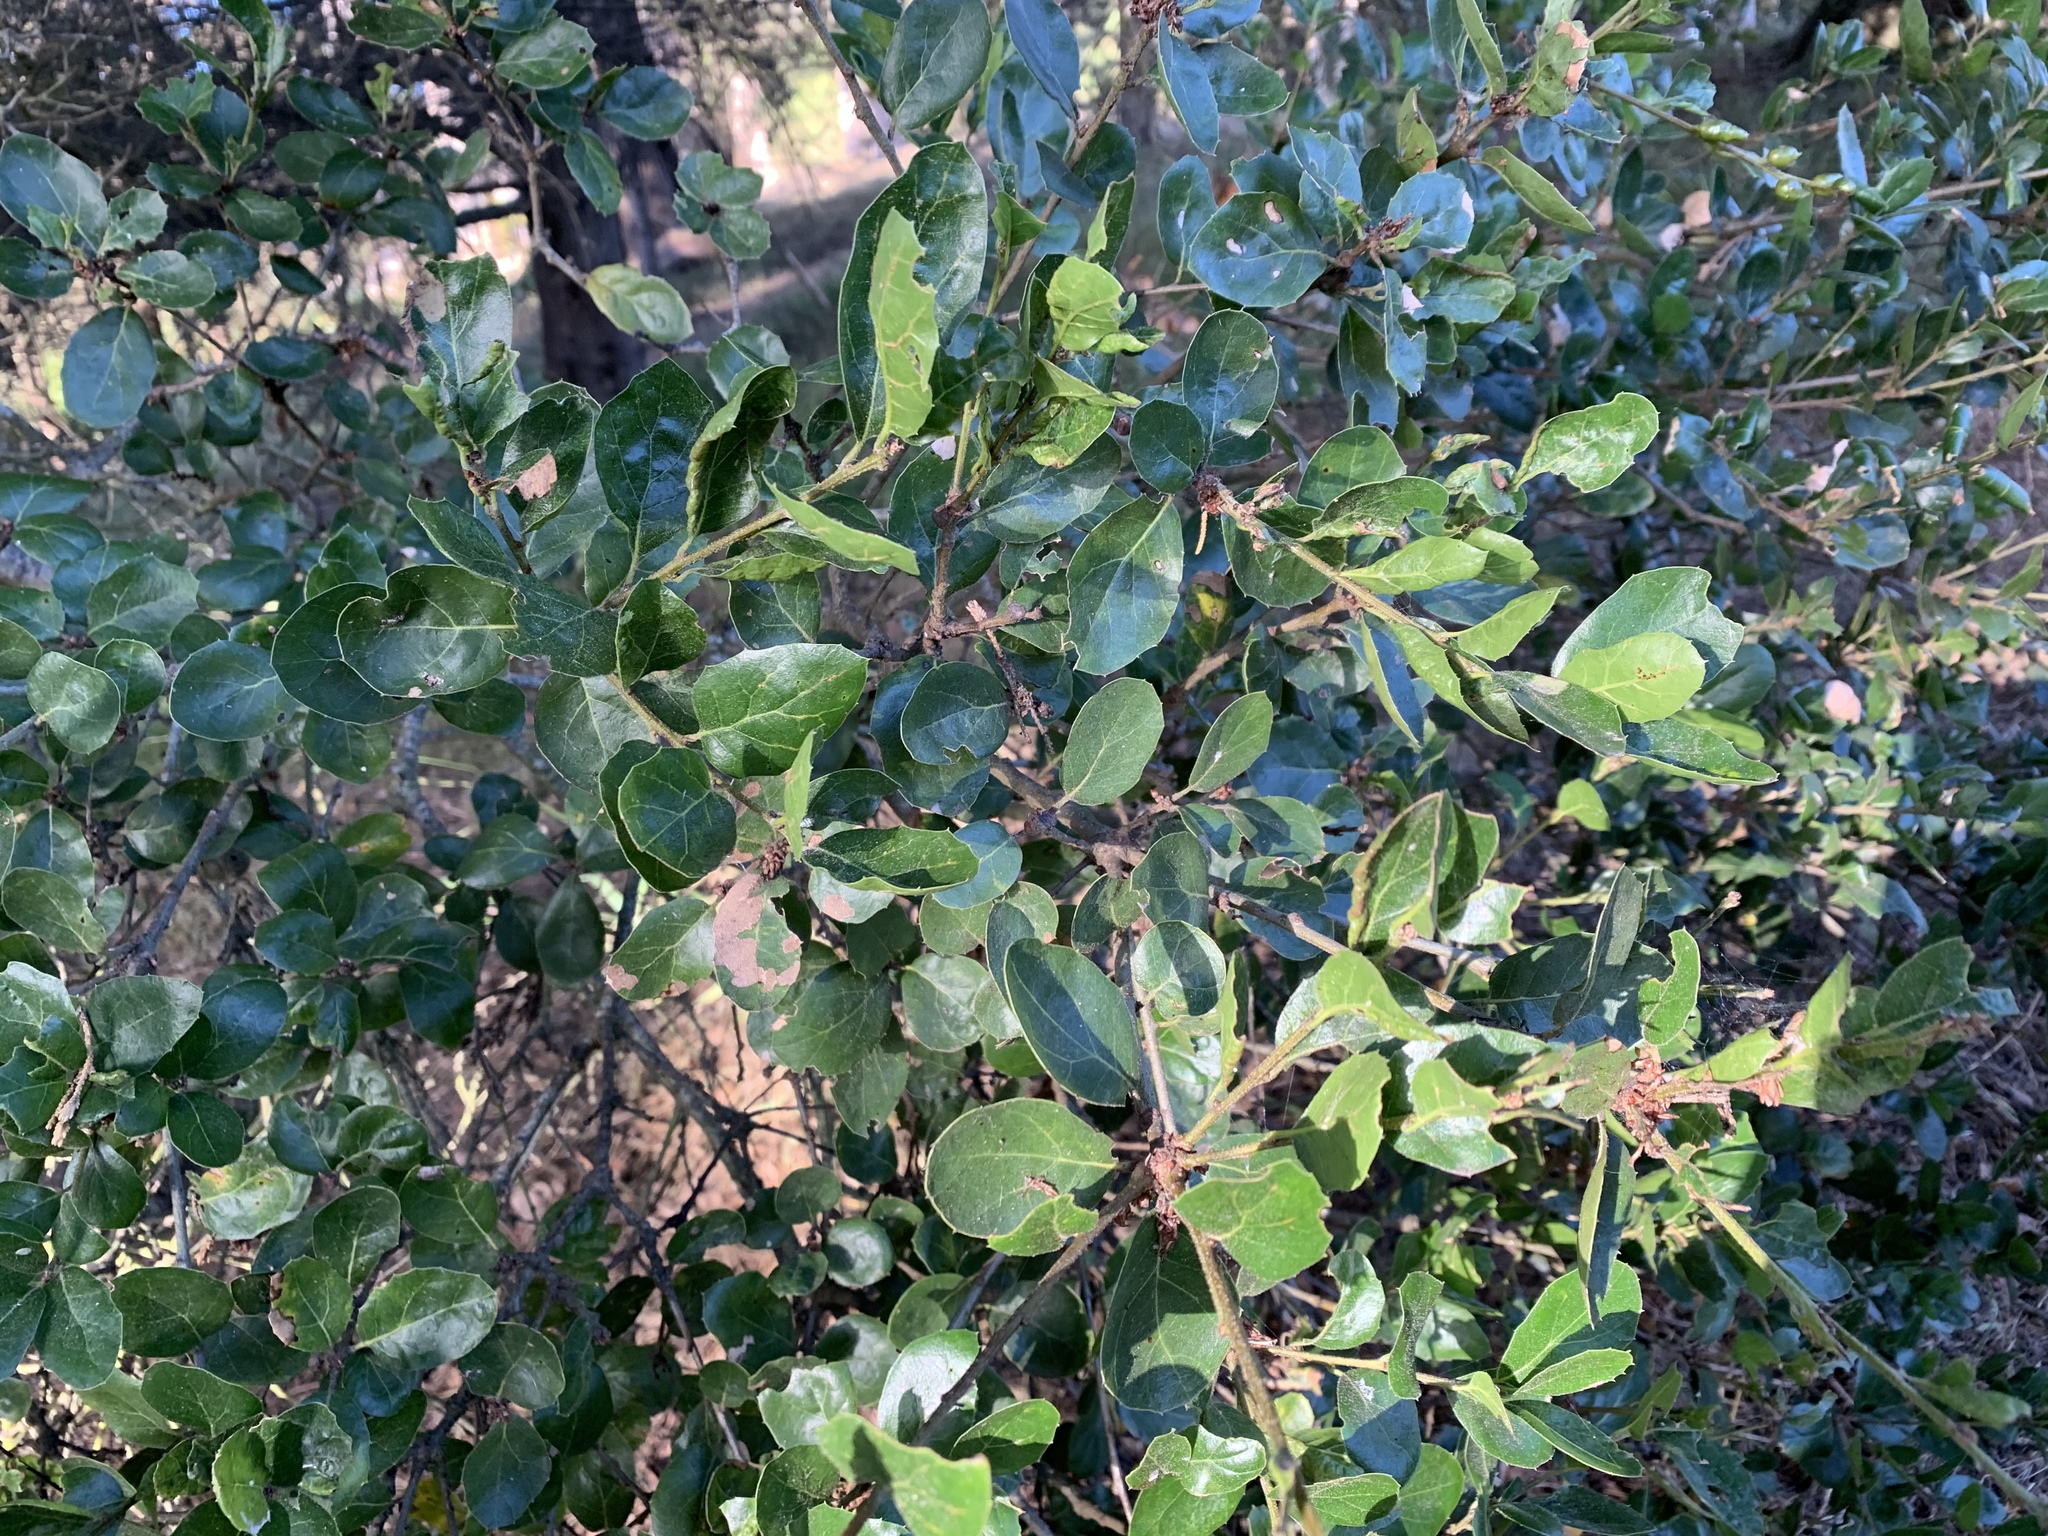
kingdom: Plantae
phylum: Tracheophyta
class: Magnoliopsida
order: Fagales
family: Fagaceae
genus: Quercus
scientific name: Quercus agrifolia
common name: California live oak
